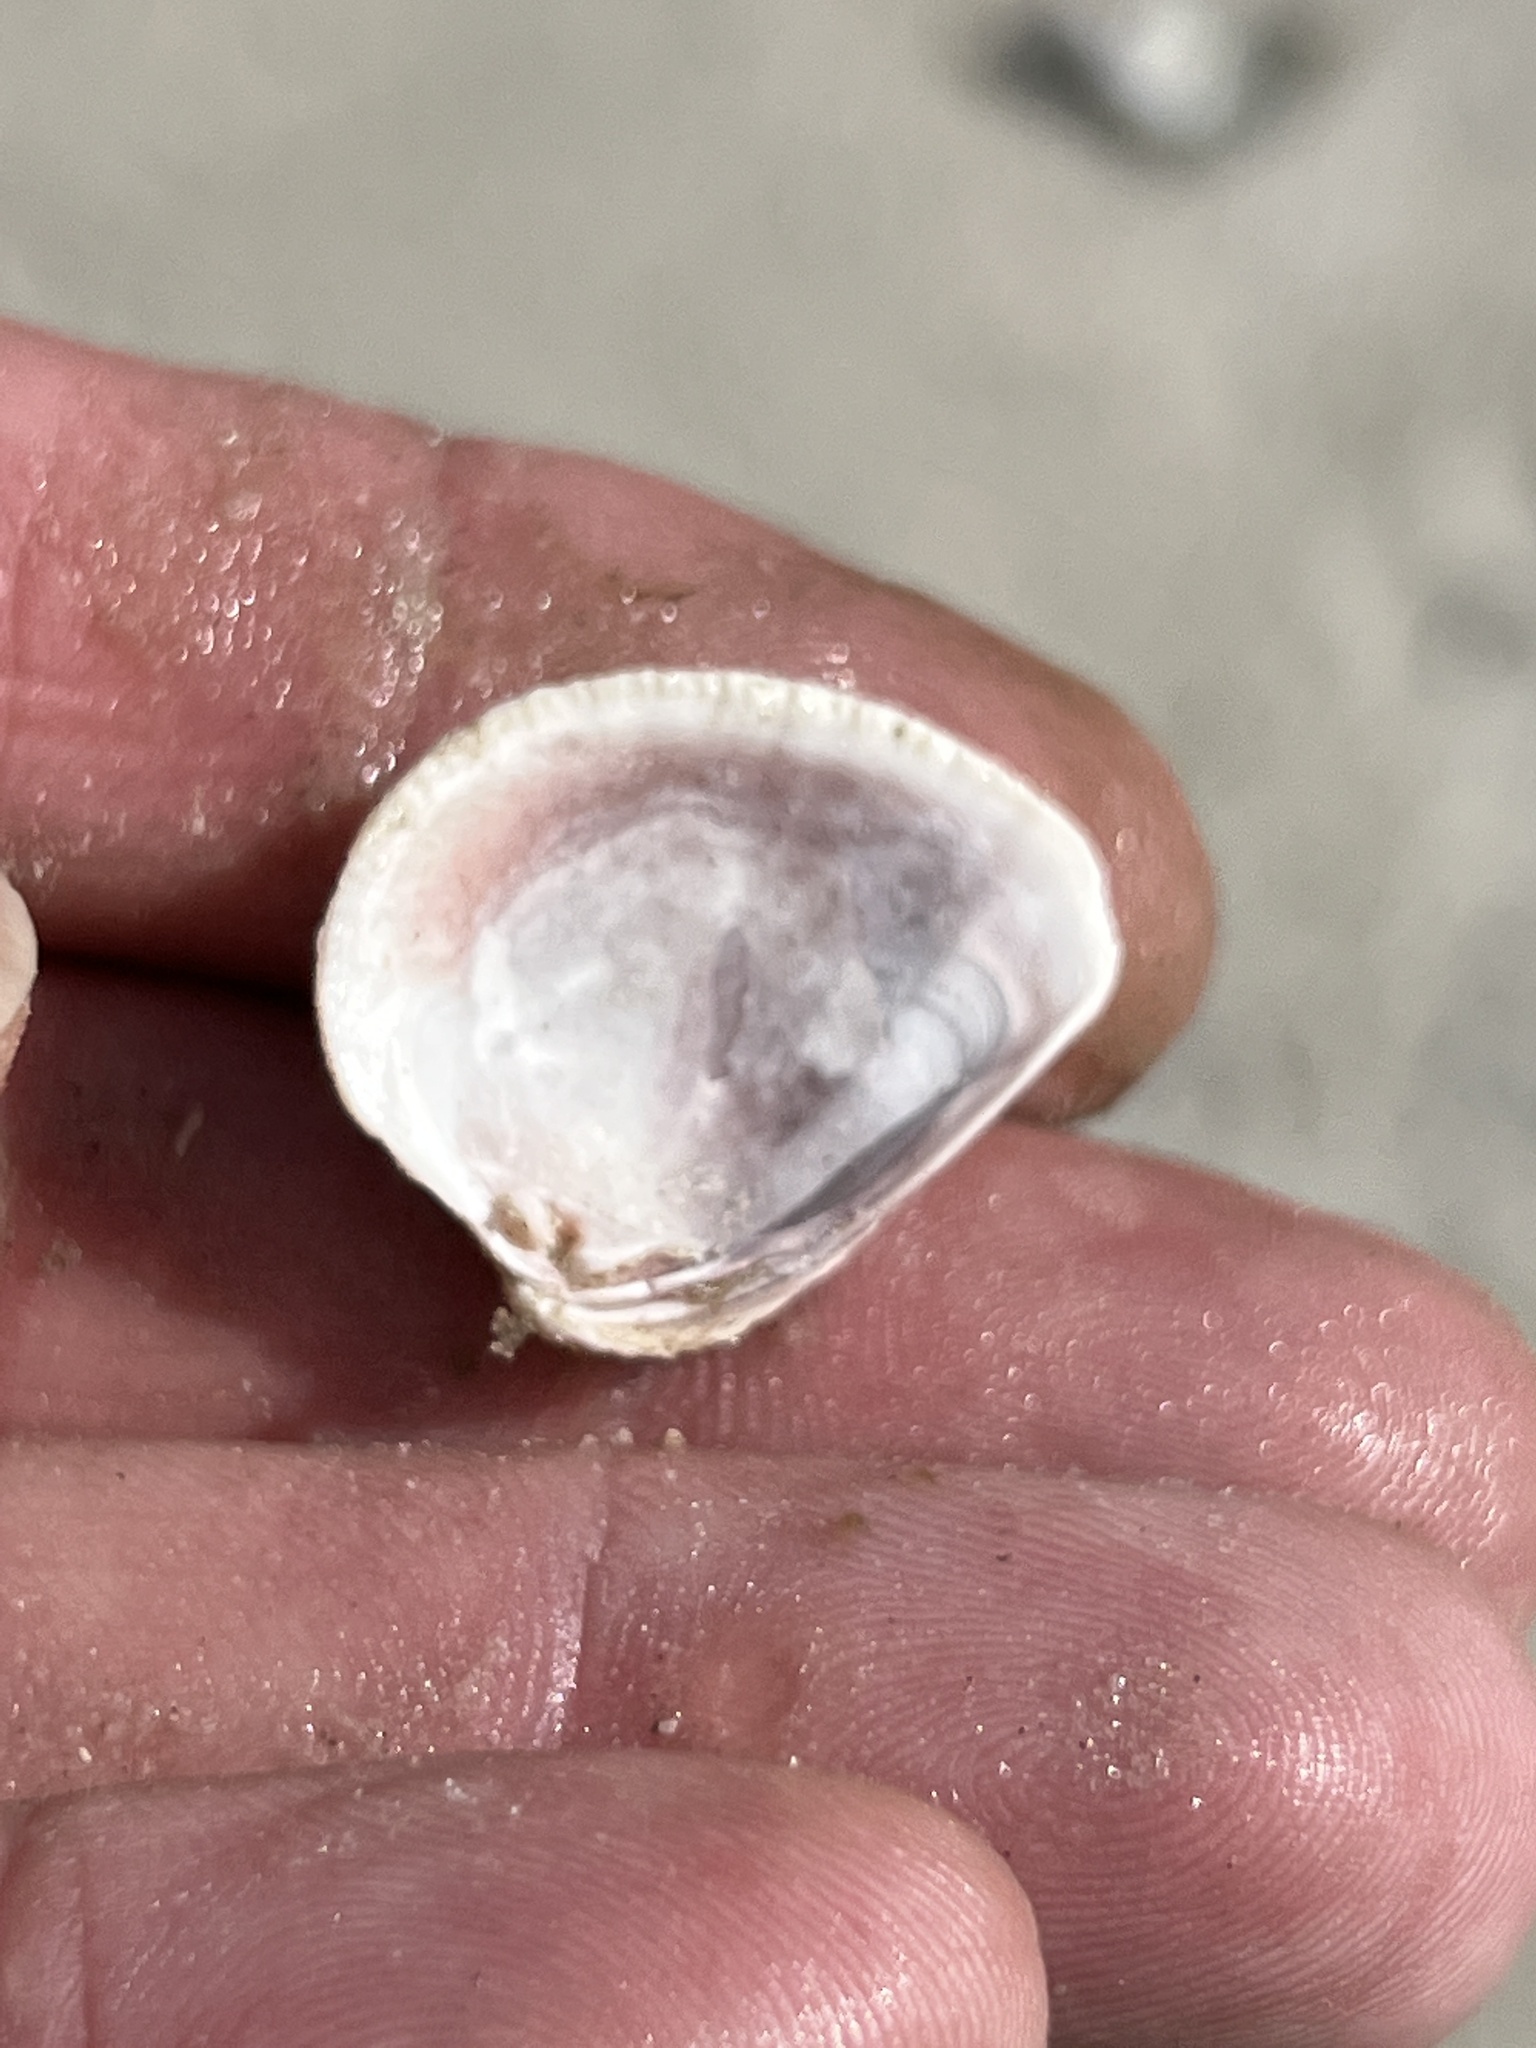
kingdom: Animalia
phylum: Mollusca
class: Bivalvia
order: Venerida
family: Veneridae
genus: Chione
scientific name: Chione elevata
